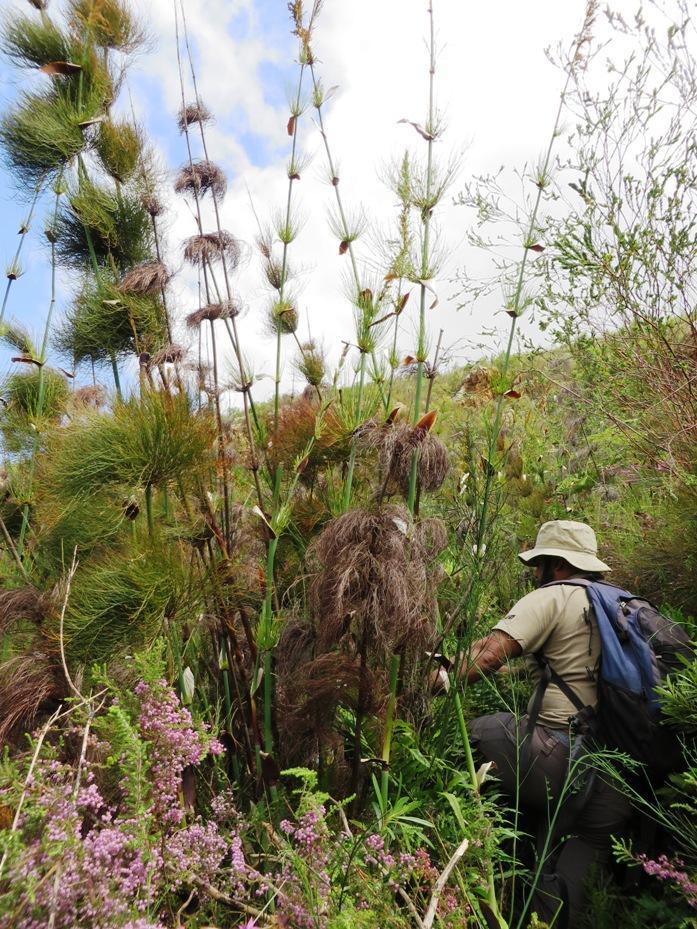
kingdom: Plantae
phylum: Tracheophyta
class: Liliopsida
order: Poales
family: Restionaceae
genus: Elegia
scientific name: Elegia capensis
